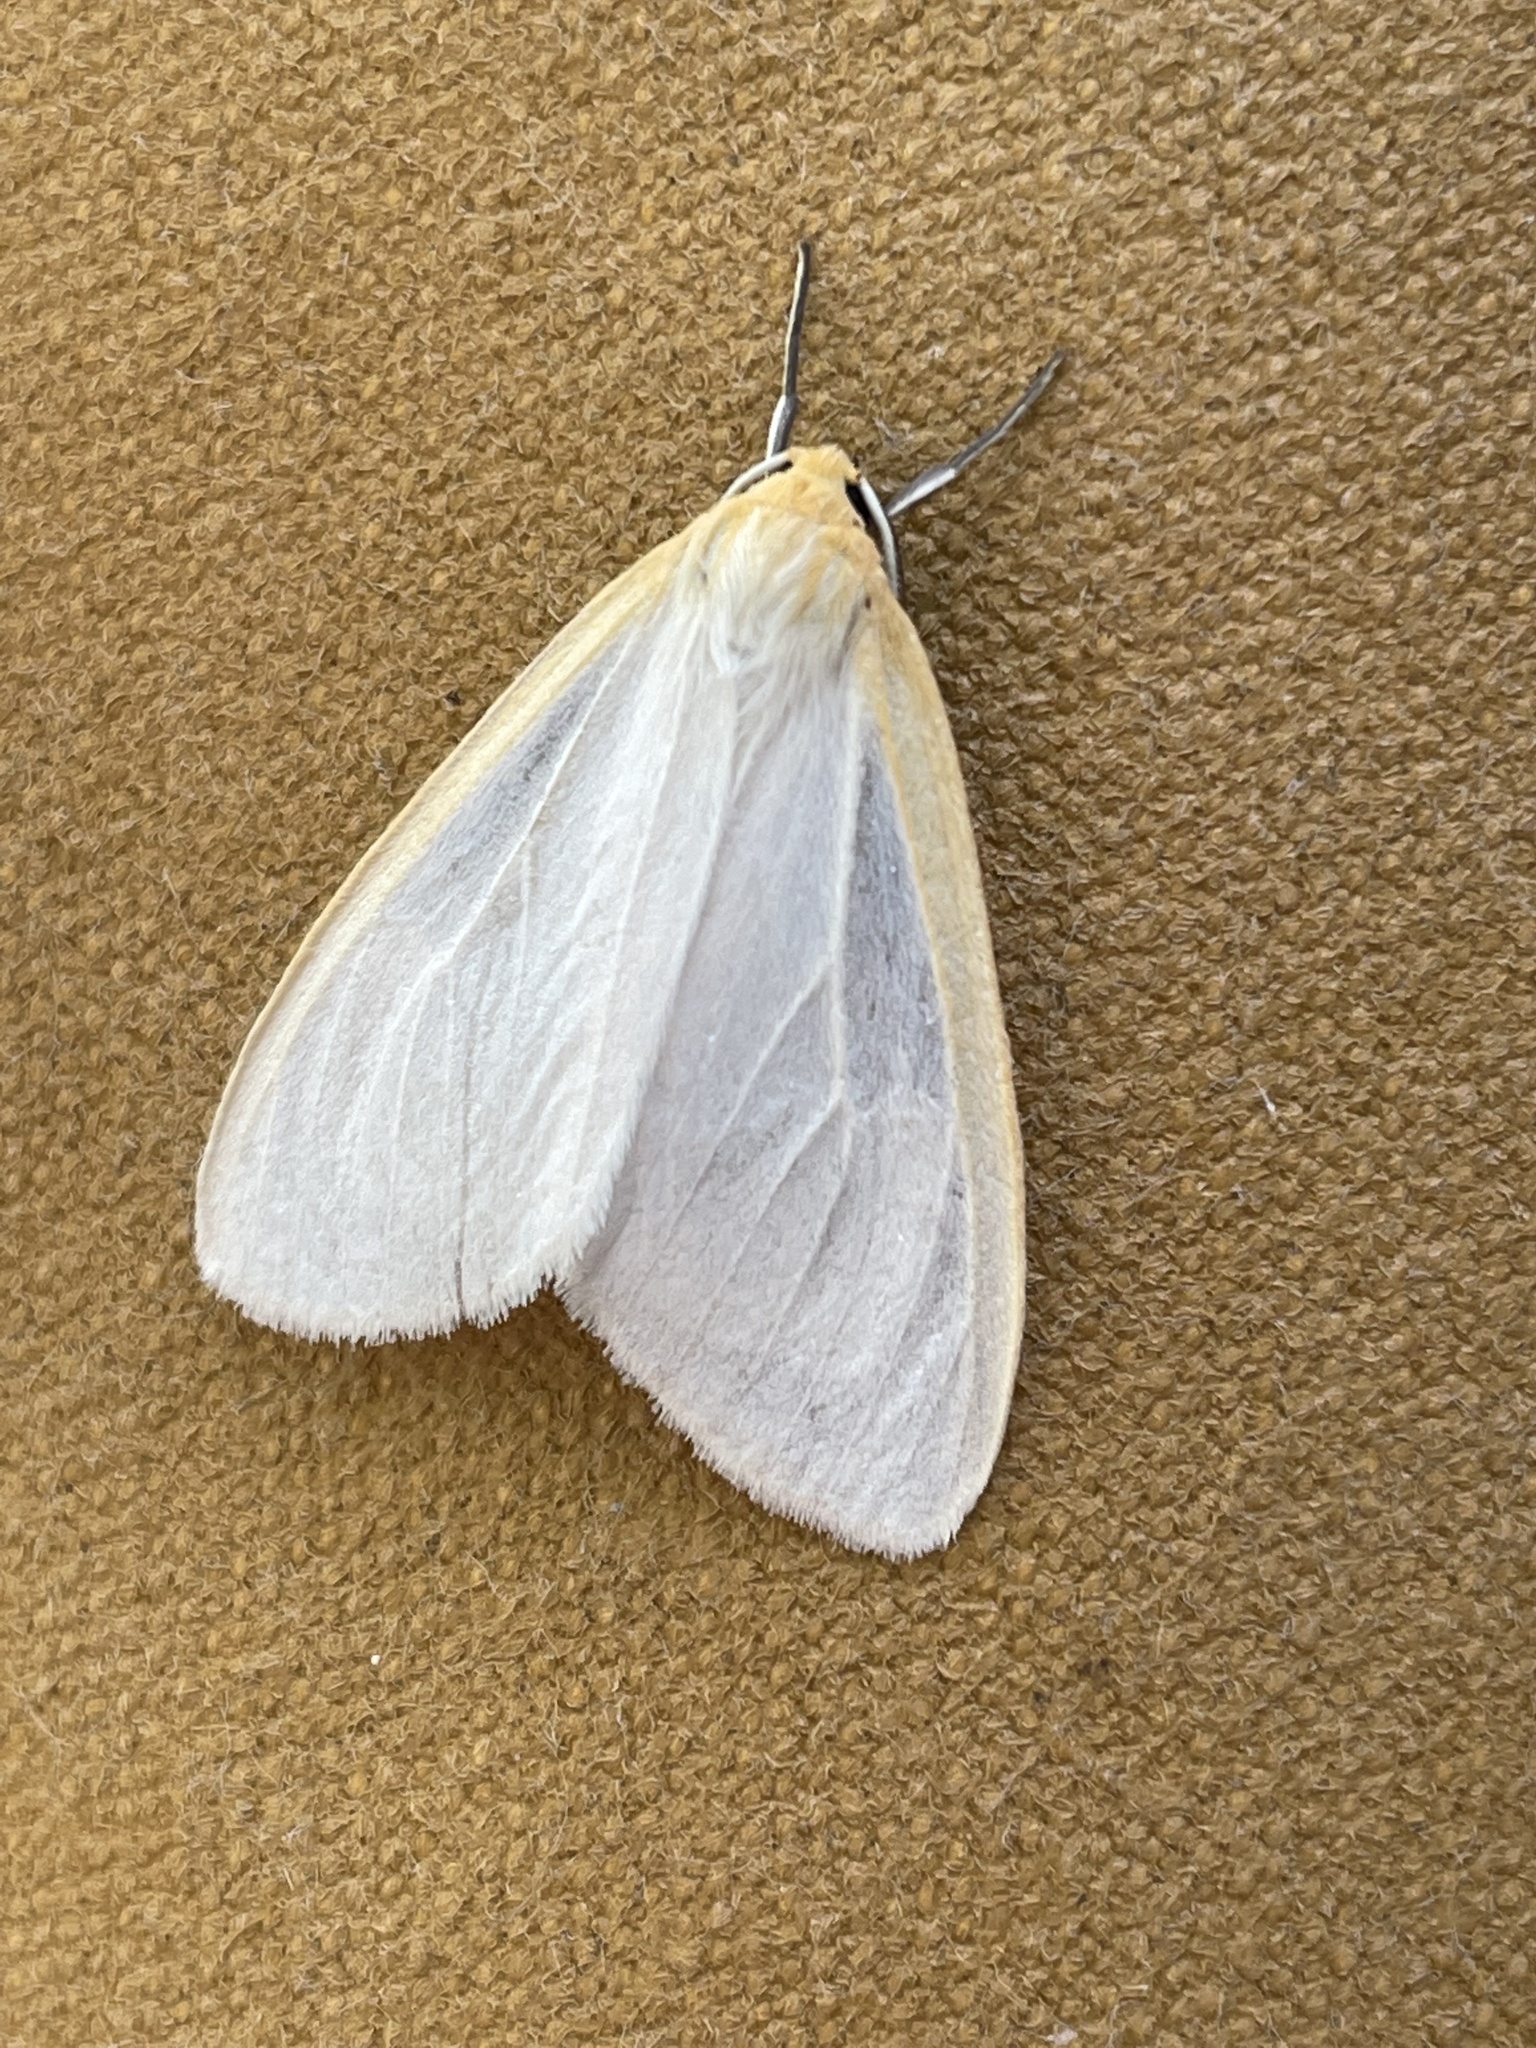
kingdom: Animalia
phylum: Arthropoda
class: Insecta
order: Lepidoptera
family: Erebidae
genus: Cycnia
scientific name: Cycnia tenera
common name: Delicate cycnia moth
